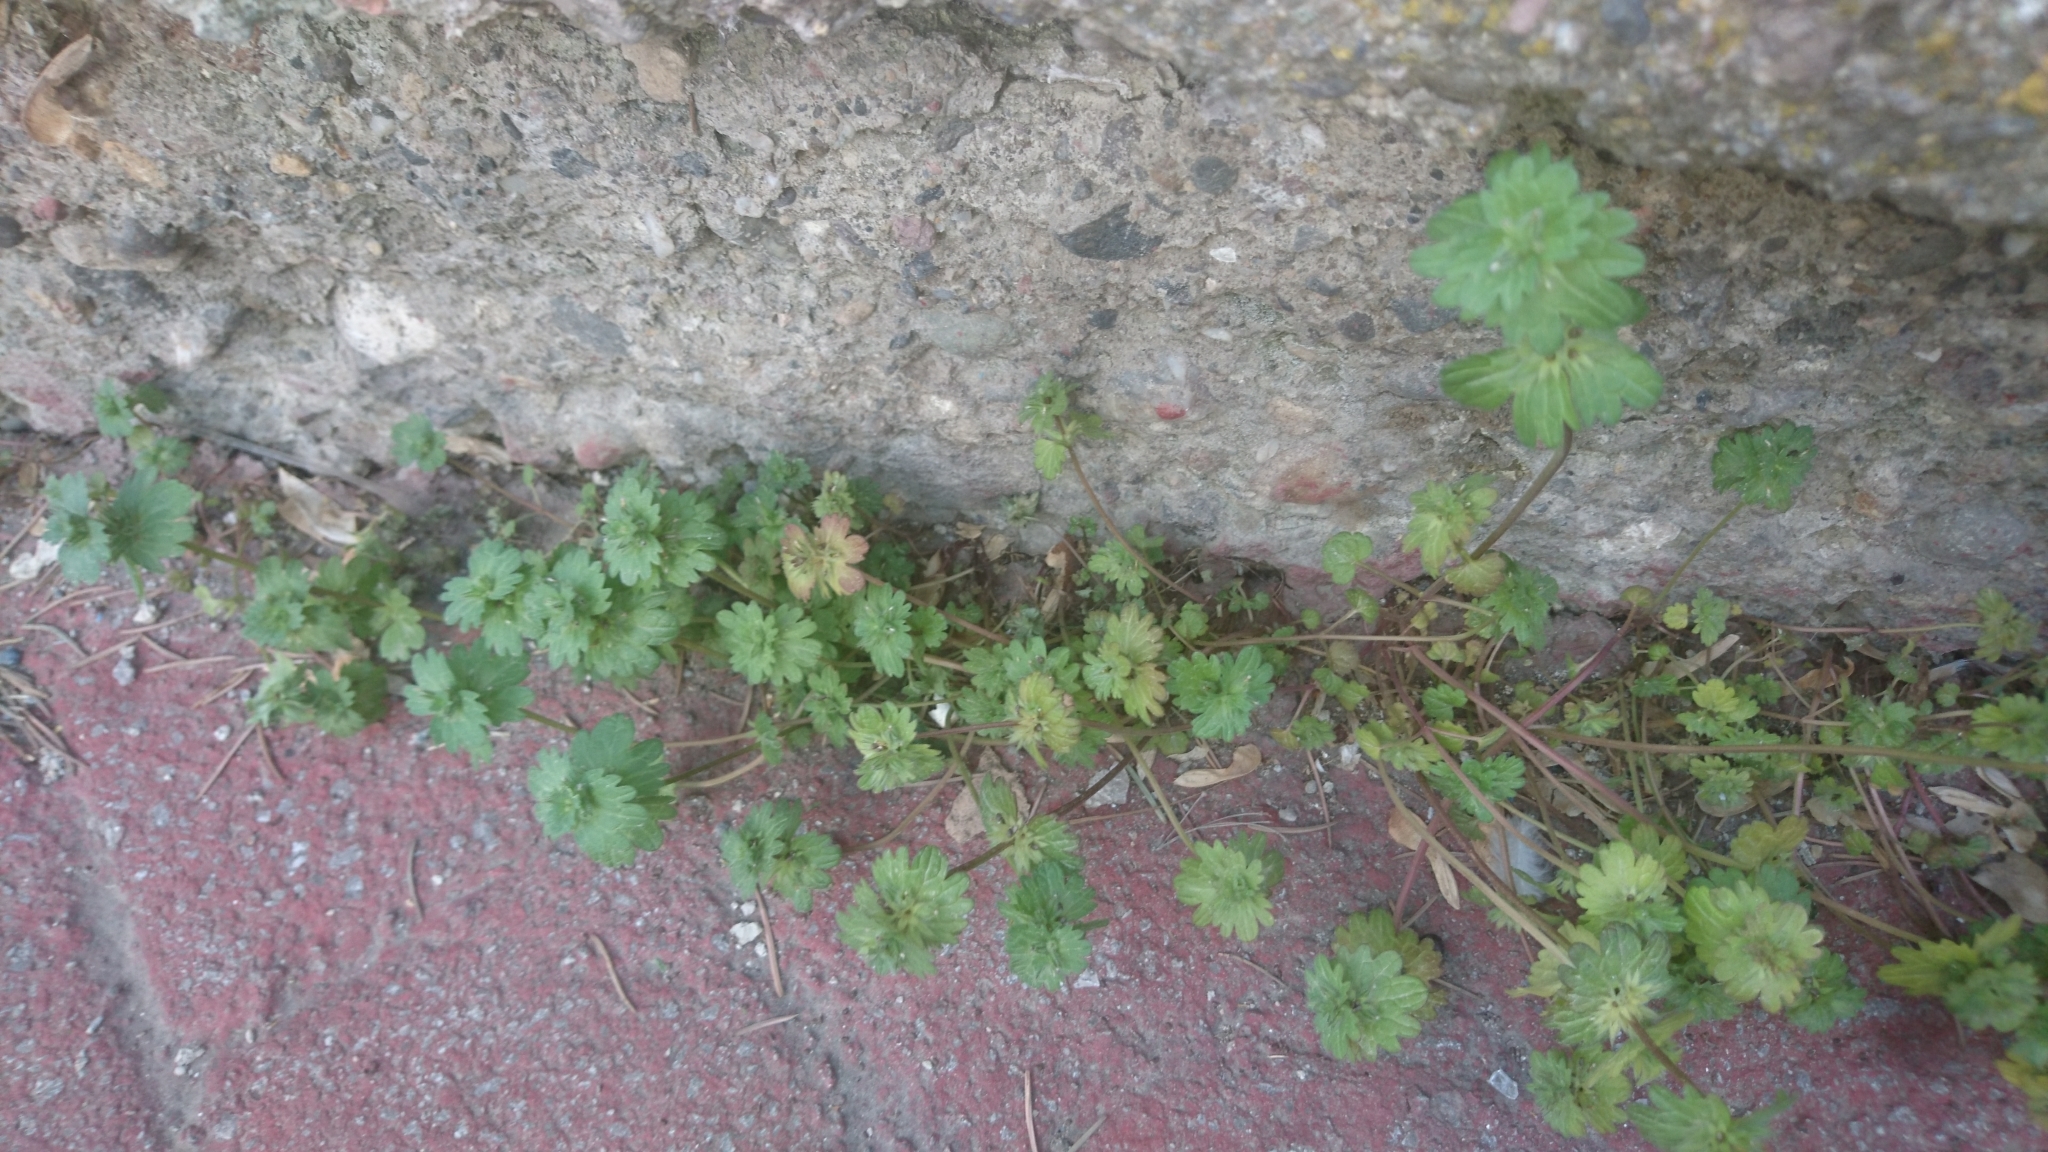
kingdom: Plantae
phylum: Tracheophyta
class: Magnoliopsida
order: Lamiales
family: Lamiaceae
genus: Lamium
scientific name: Lamium amplexicaule
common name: Henbit dead-nettle
